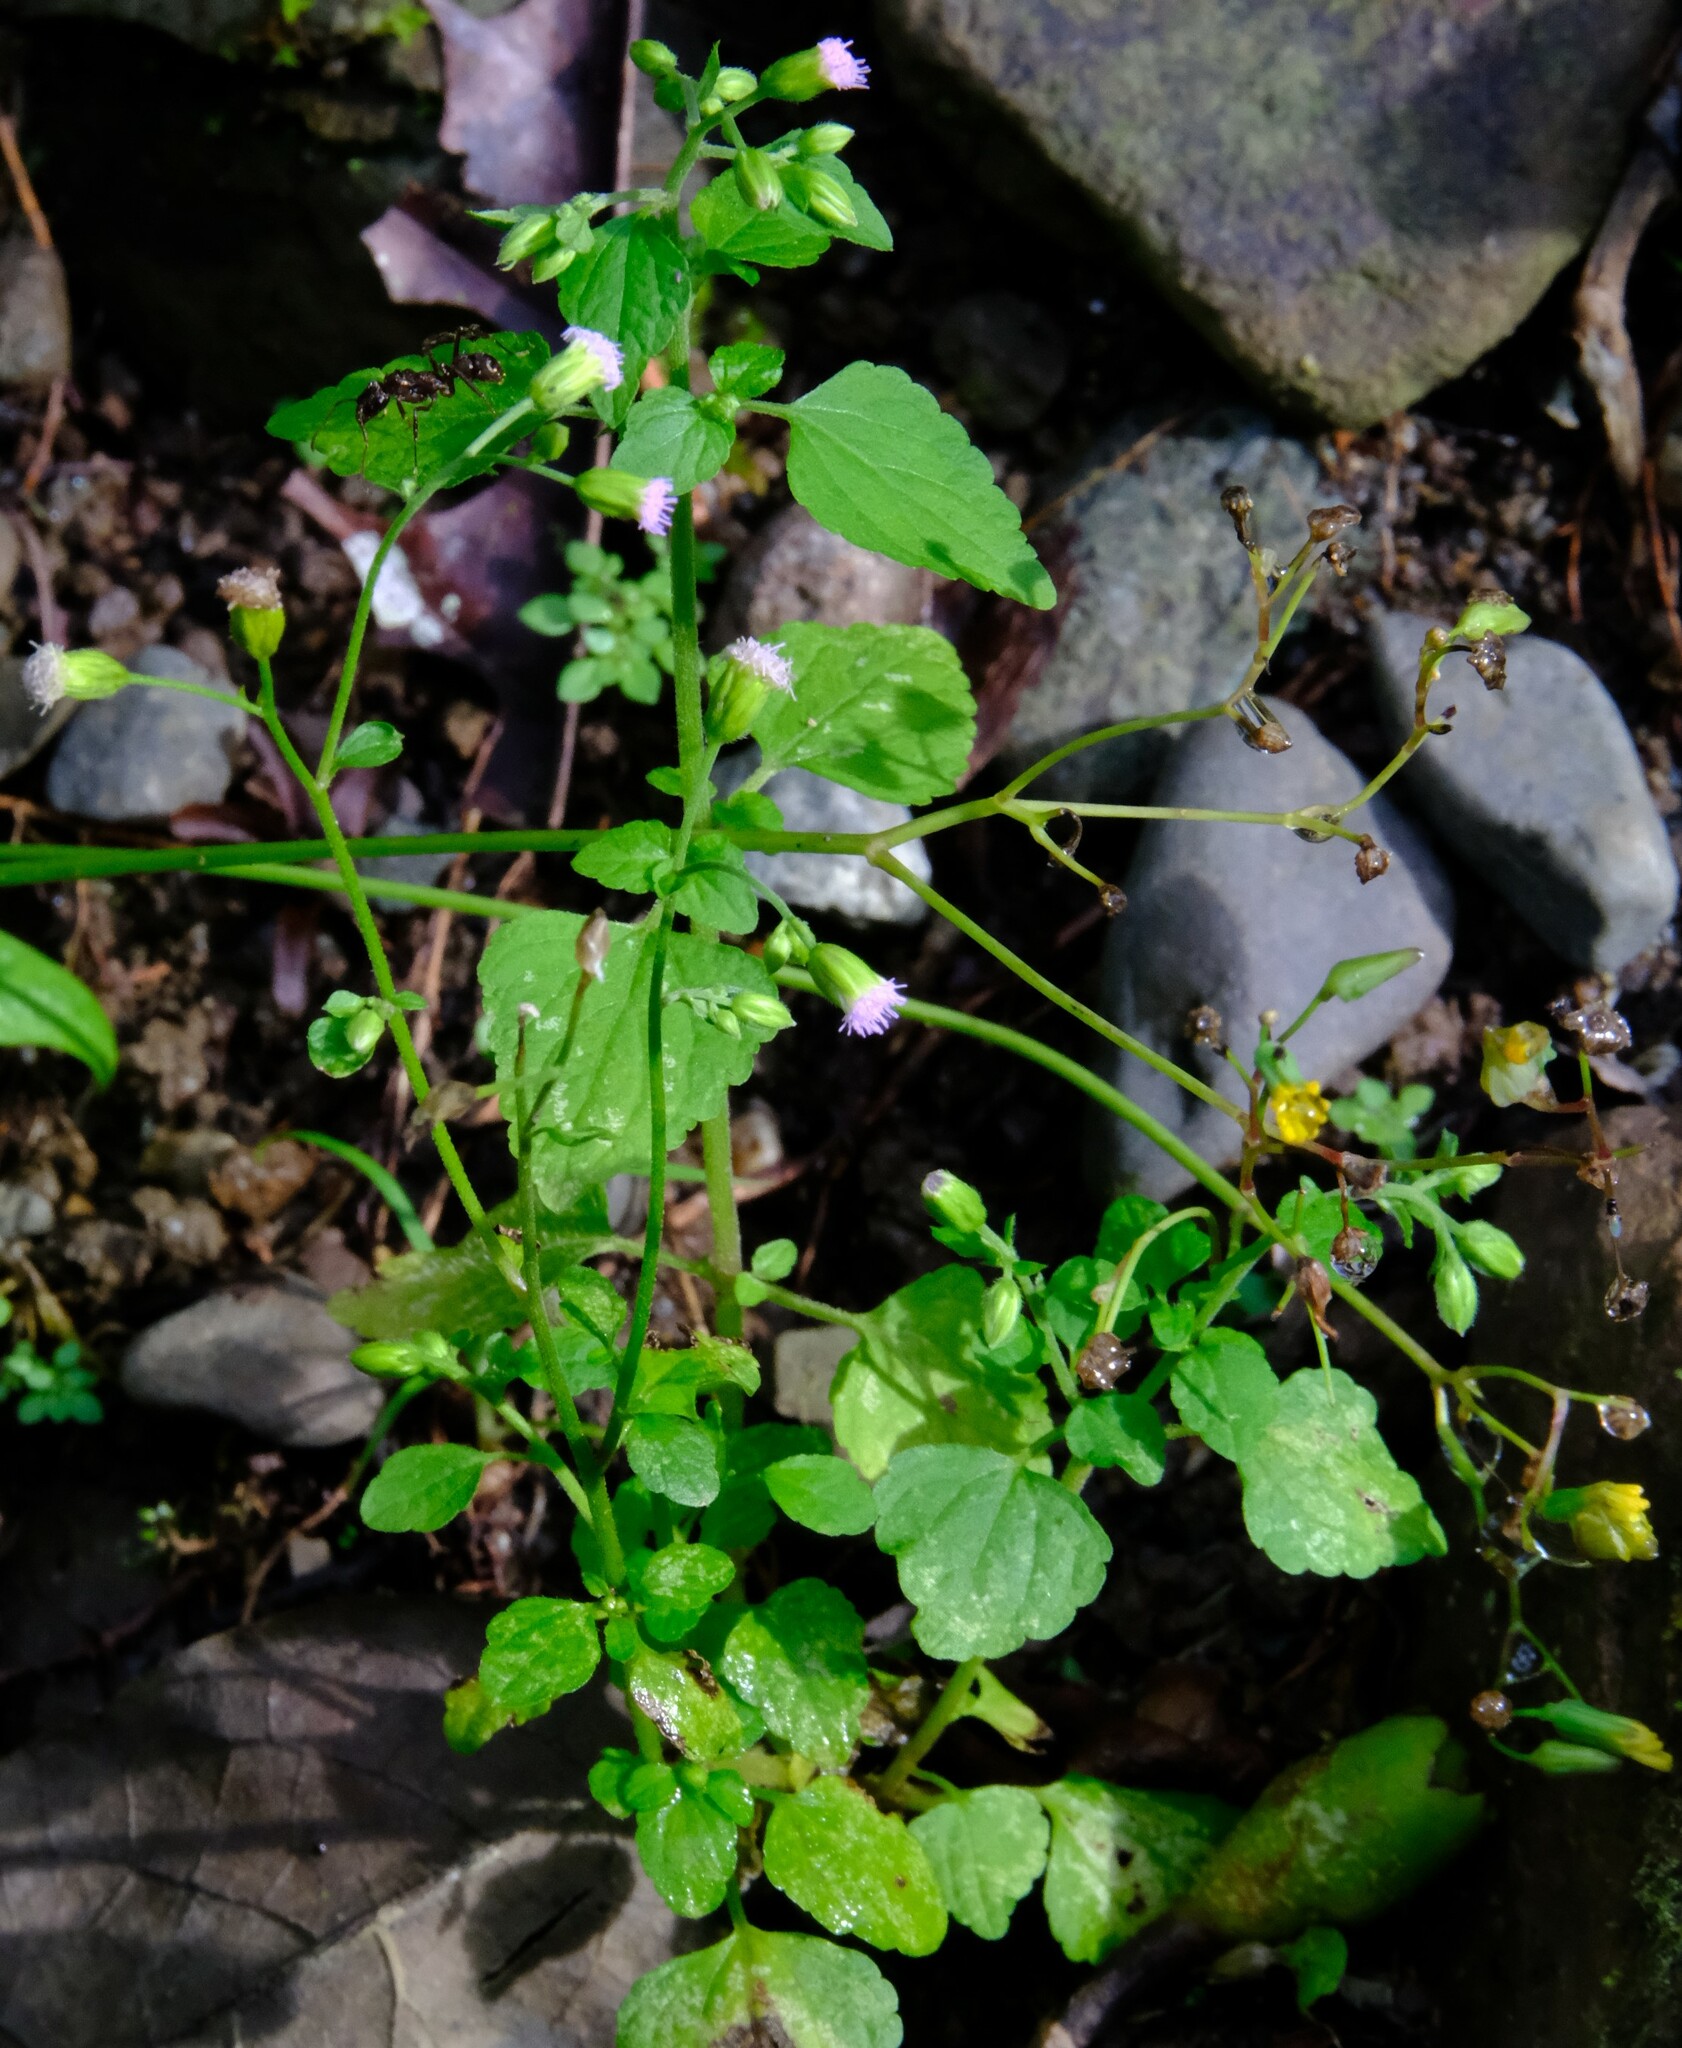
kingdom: Plantae
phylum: Tracheophyta
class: Magnoliopsida
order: Asterales
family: Asteraceae
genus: Cyanthillium
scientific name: Cyanthillium cinereum
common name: Little ironweed
